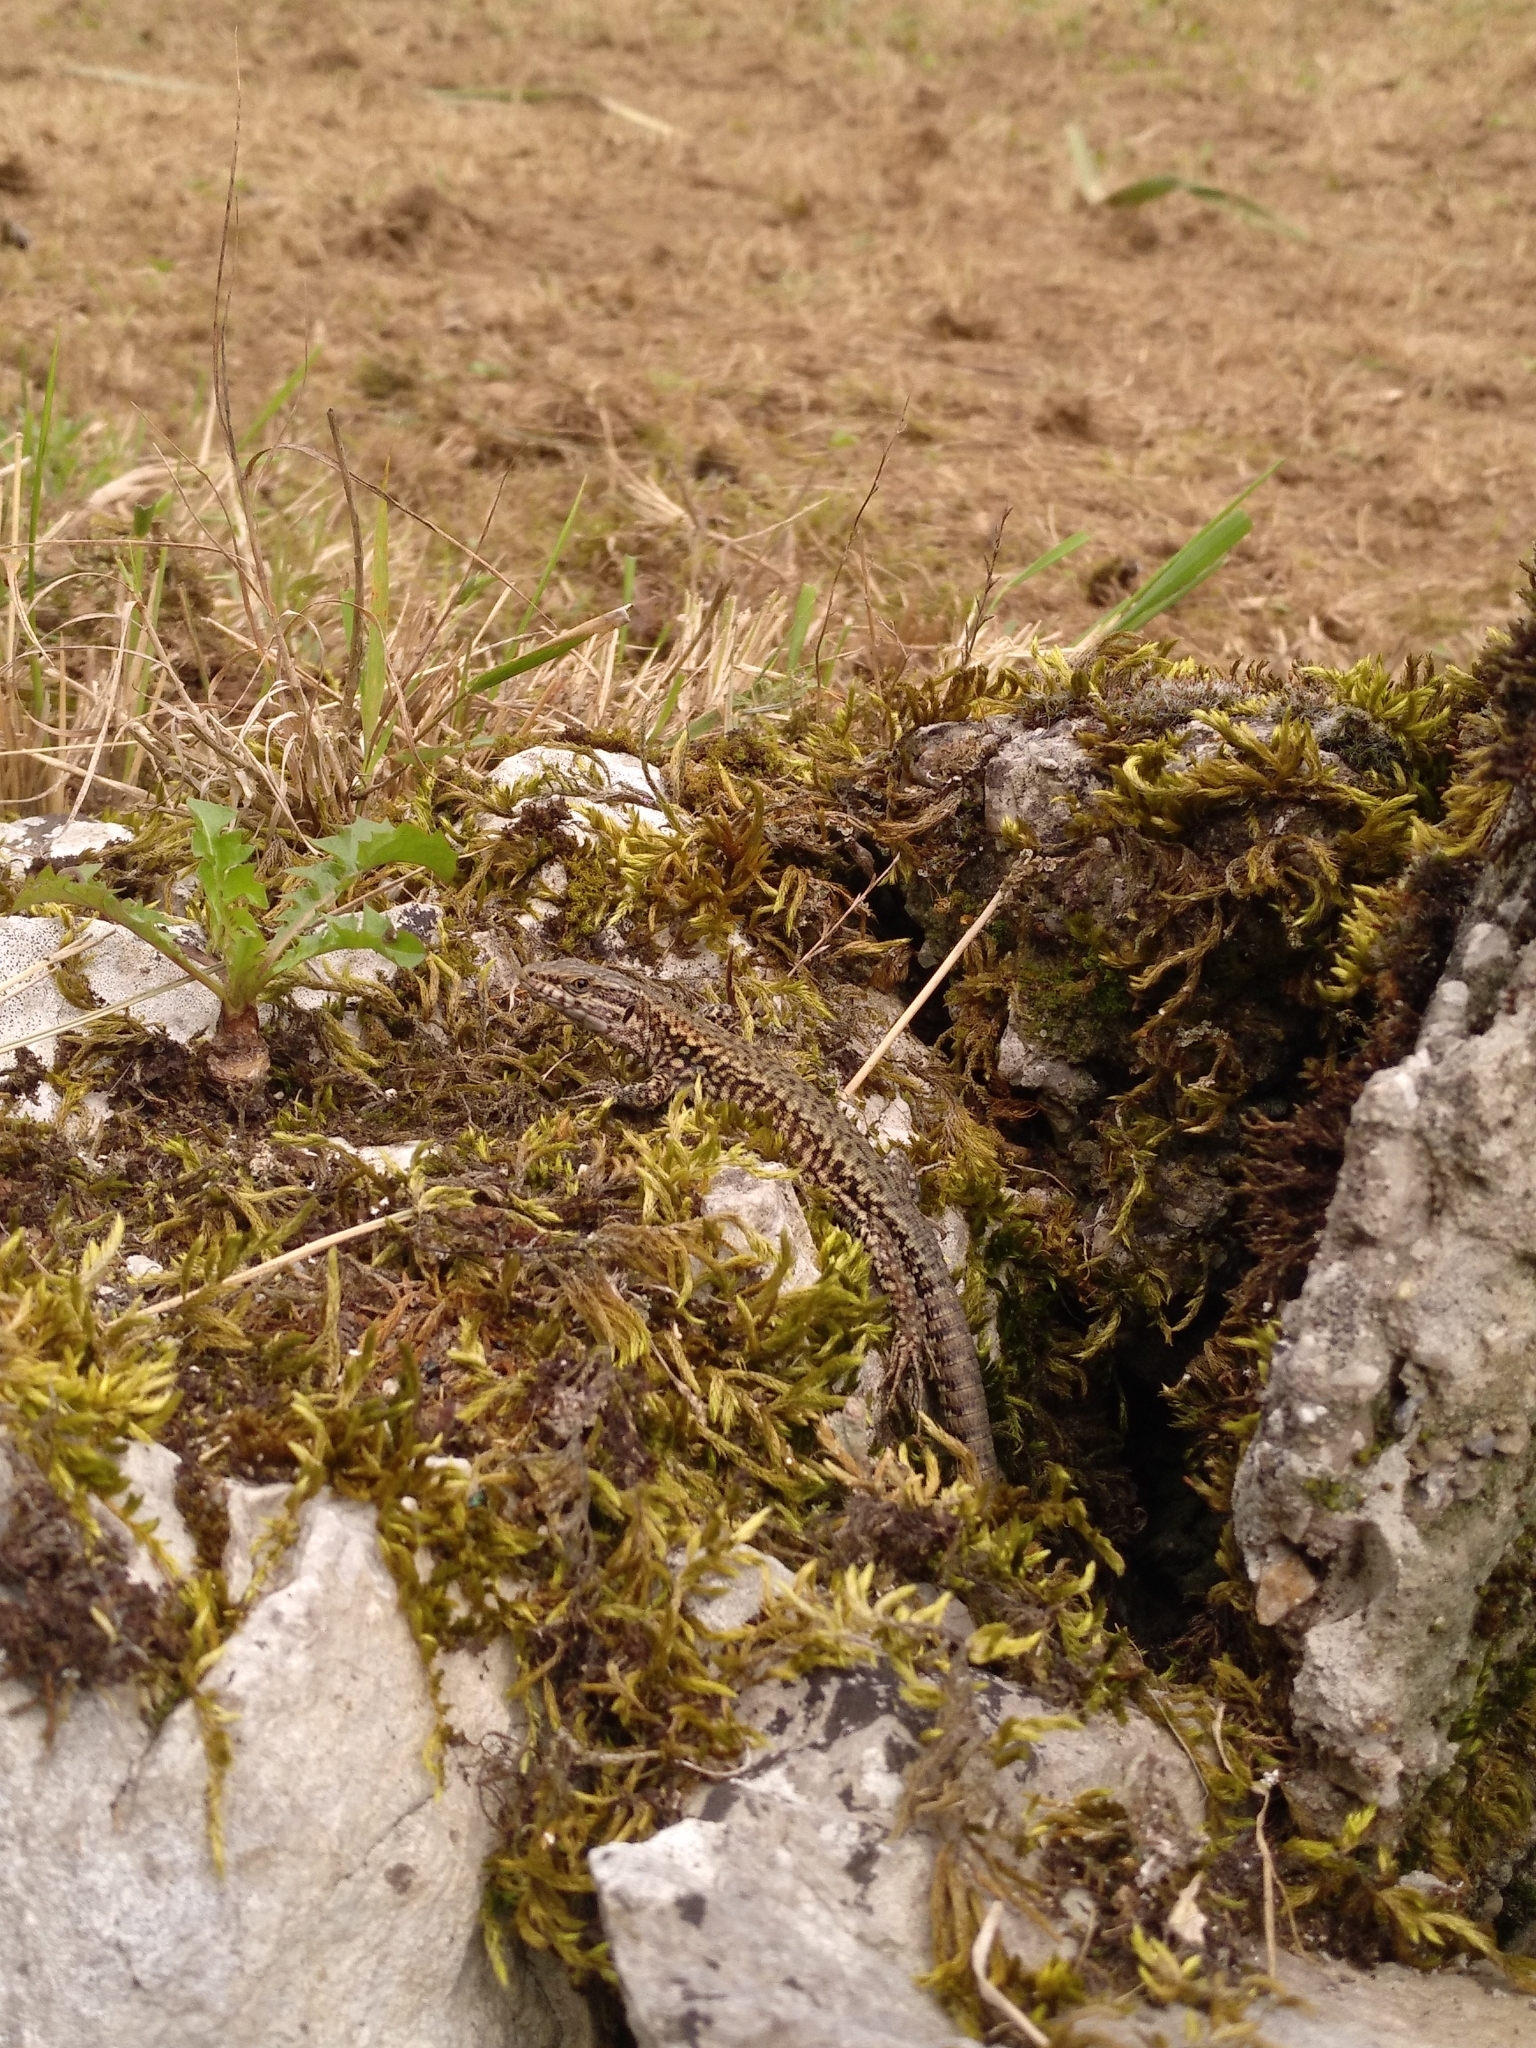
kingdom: Animalia
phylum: Chordata
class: Squamata
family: Lacertidae
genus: Podarcis
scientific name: Podarcis muralis
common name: Common wall lizard
